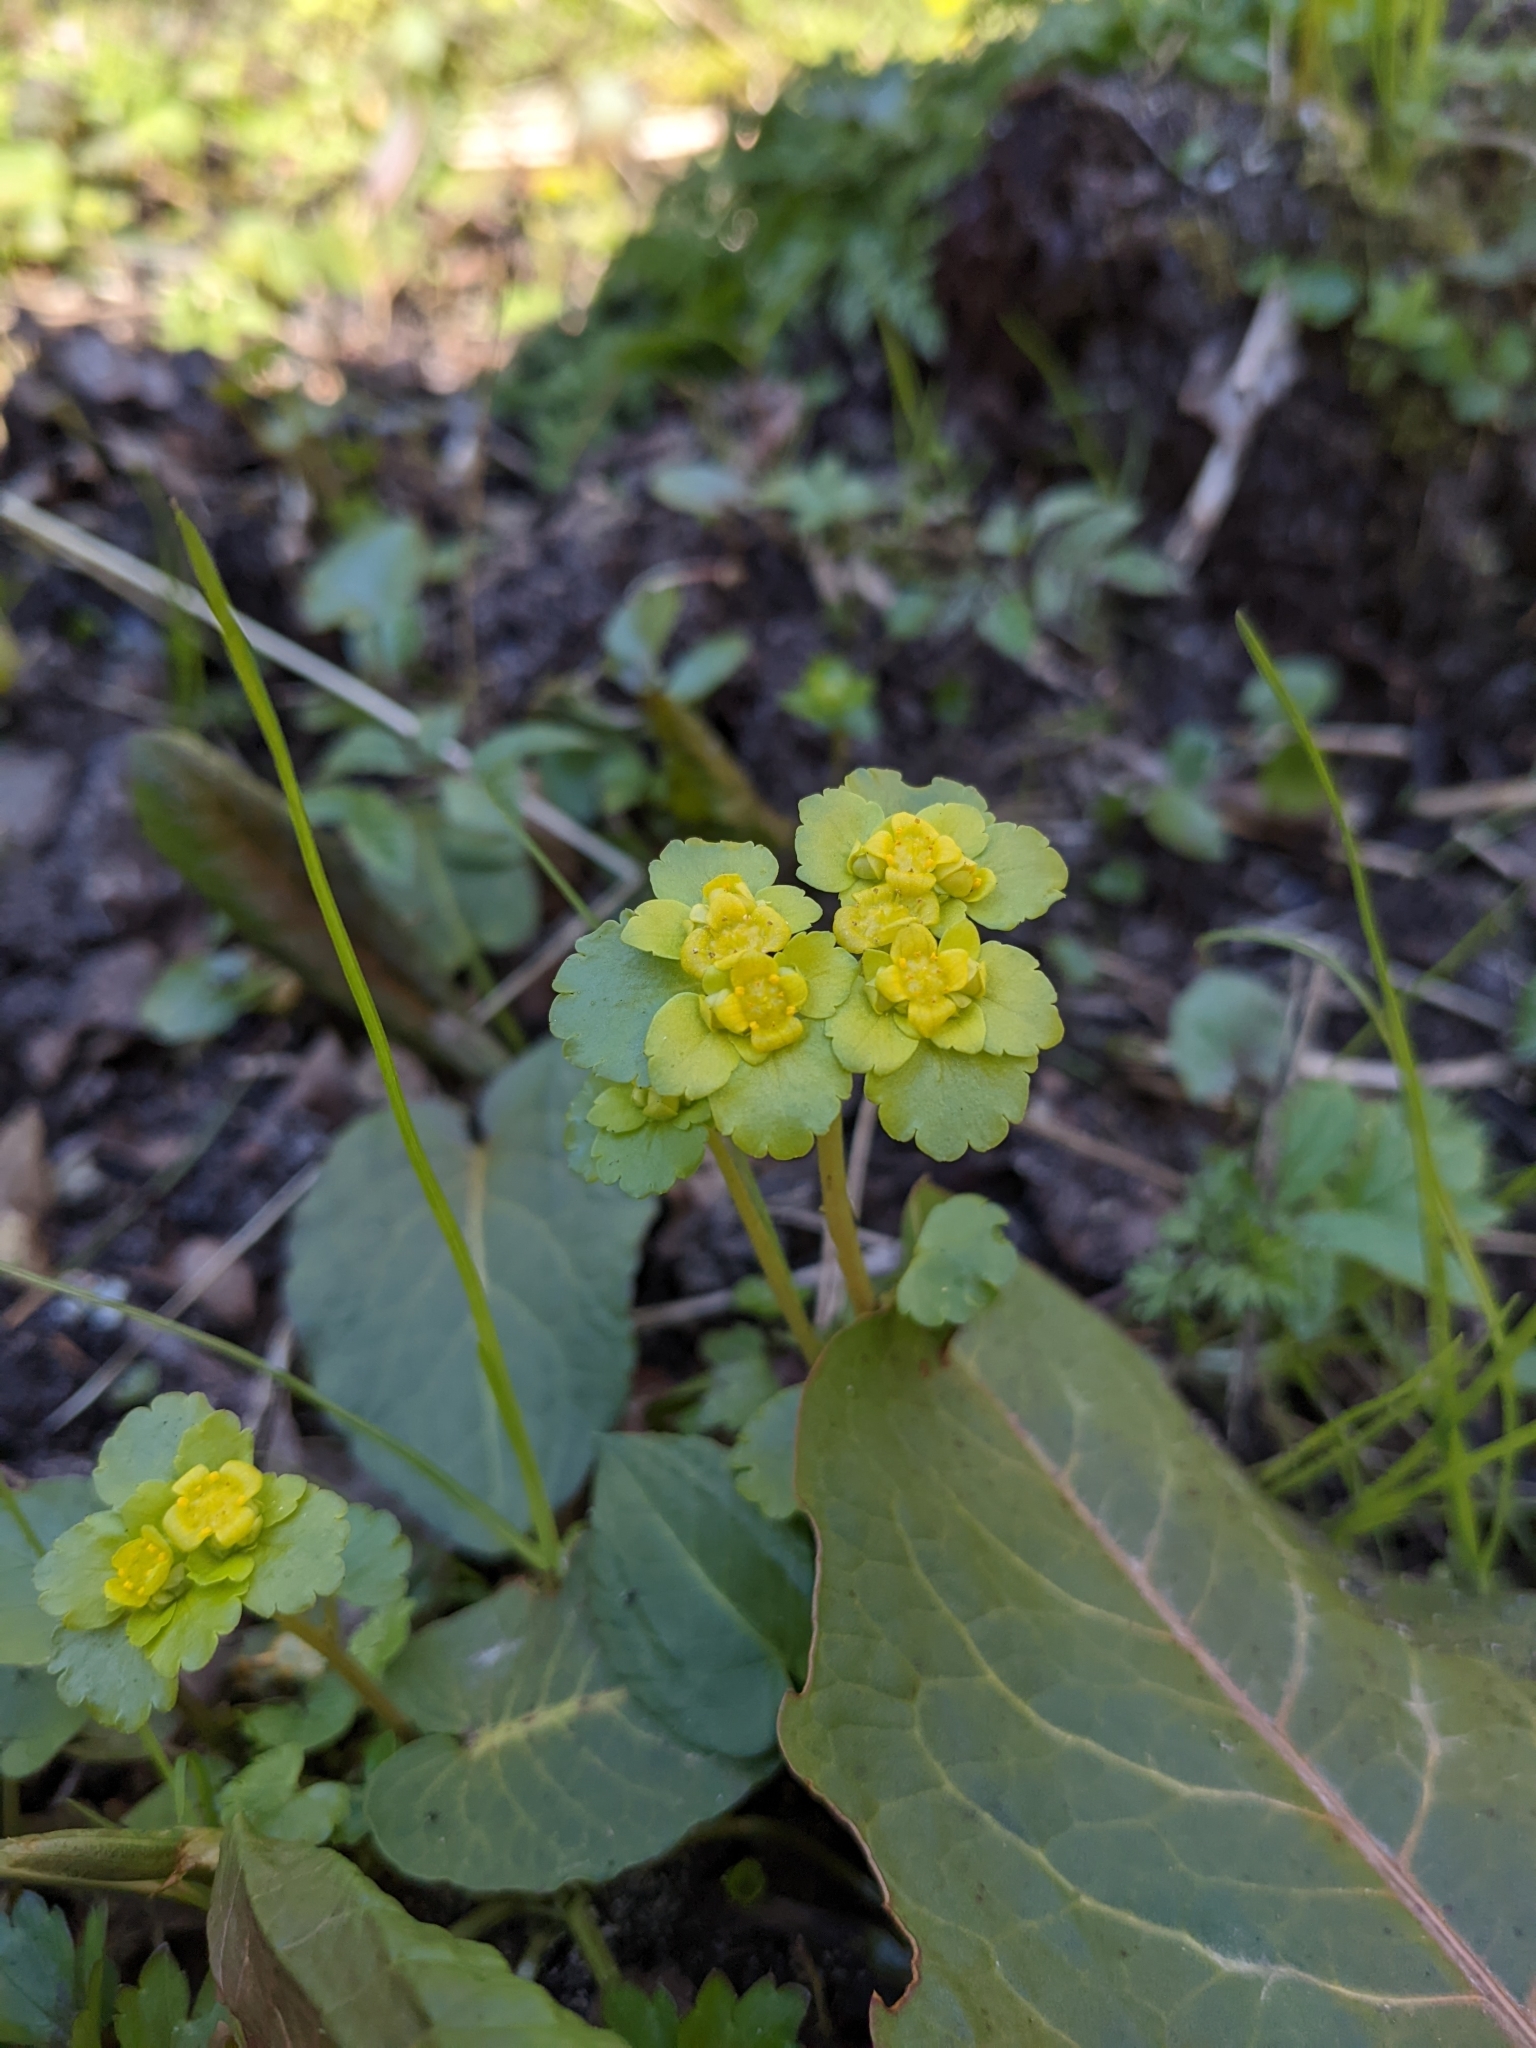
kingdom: Plantae
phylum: Tracheophyta
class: Magnoliopsida
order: Saxifragales
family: Saxifragaceae
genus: Chrysosplenium
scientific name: Chrysosplenium alternifolium
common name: Alternate-leaved golden-saxifrage
